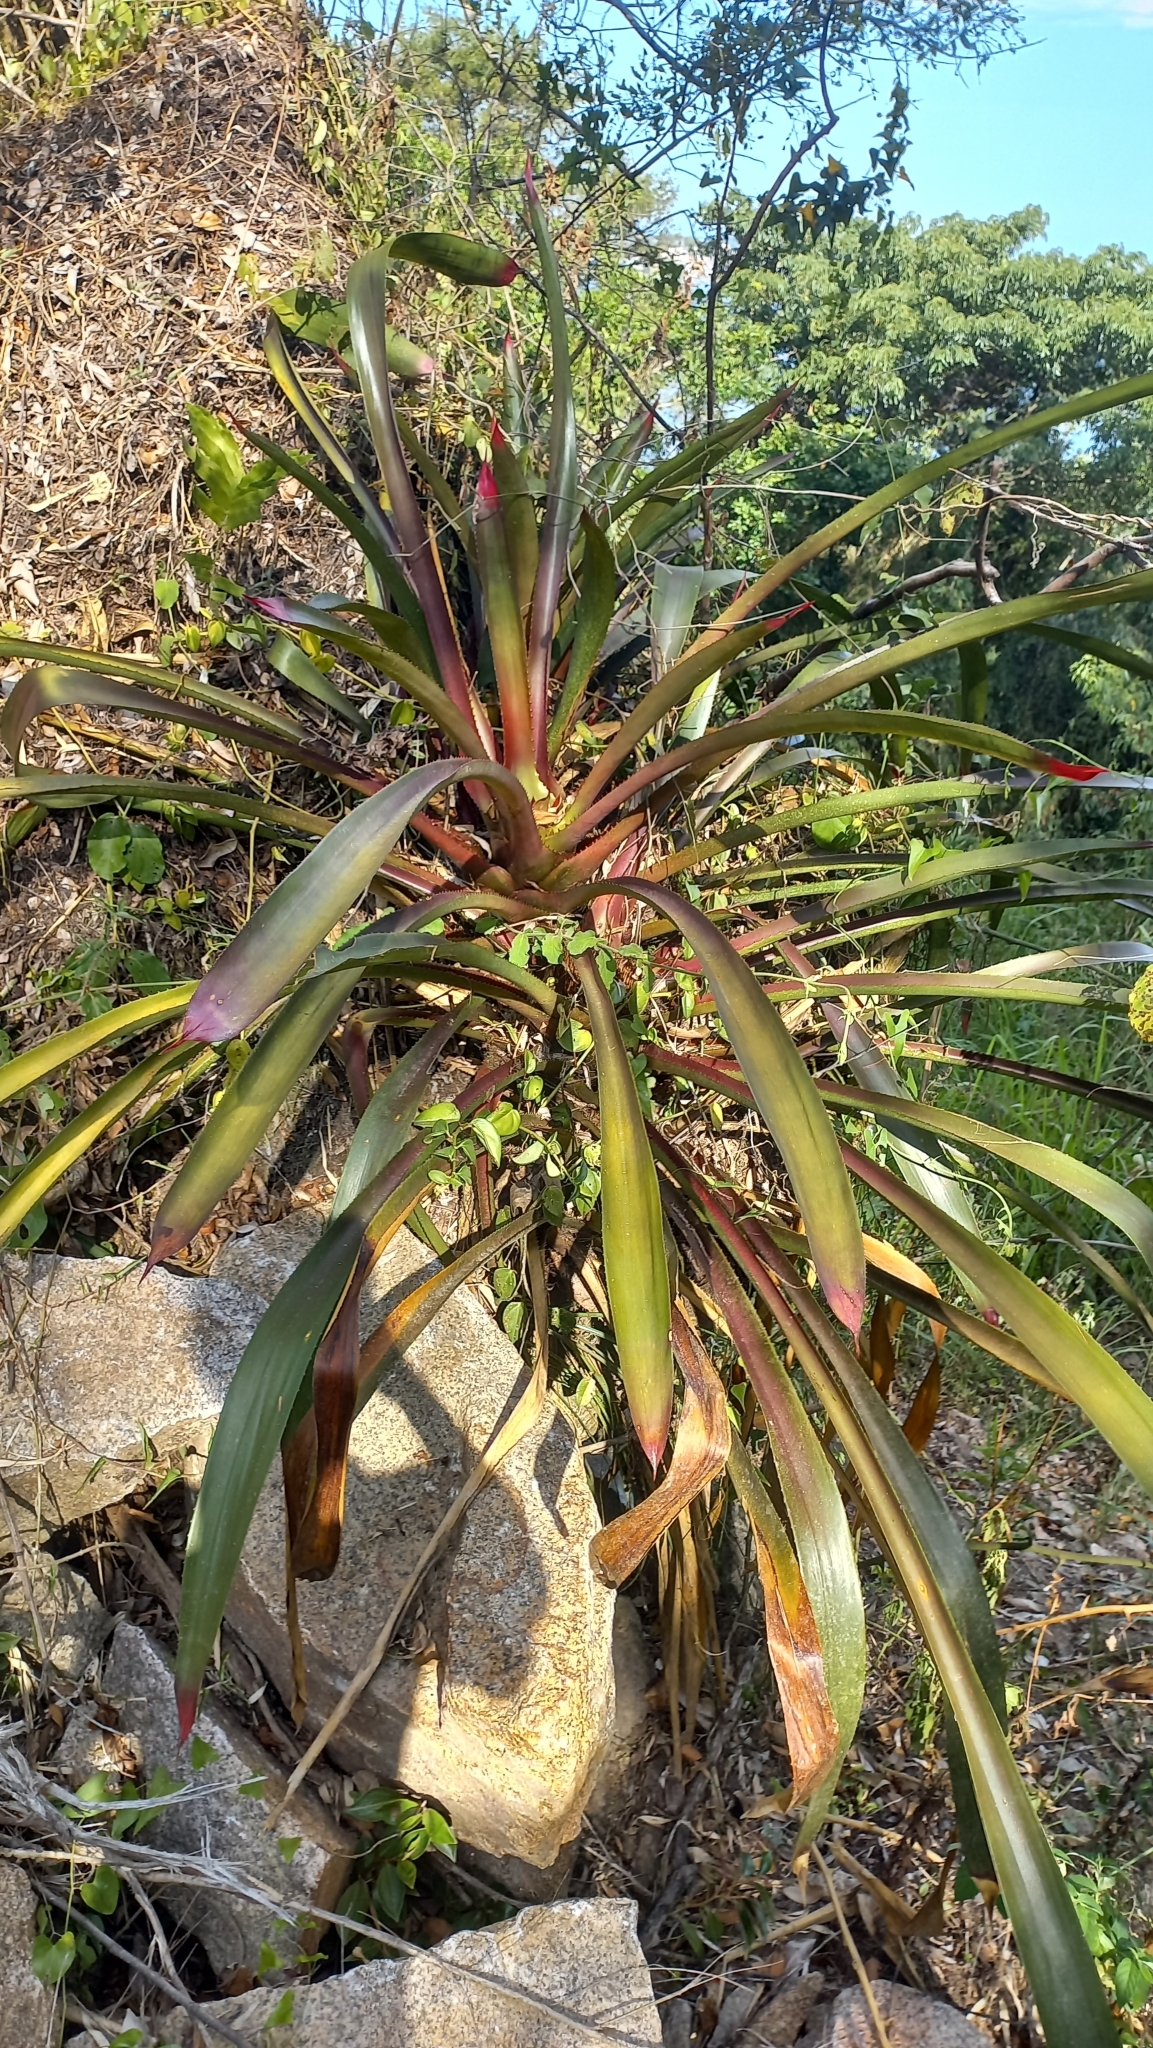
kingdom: Plantae
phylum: Tracheophyta
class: Liliopsida
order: Poales
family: Bromeliaceae
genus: Wittrockia
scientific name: Wittrockia superba
